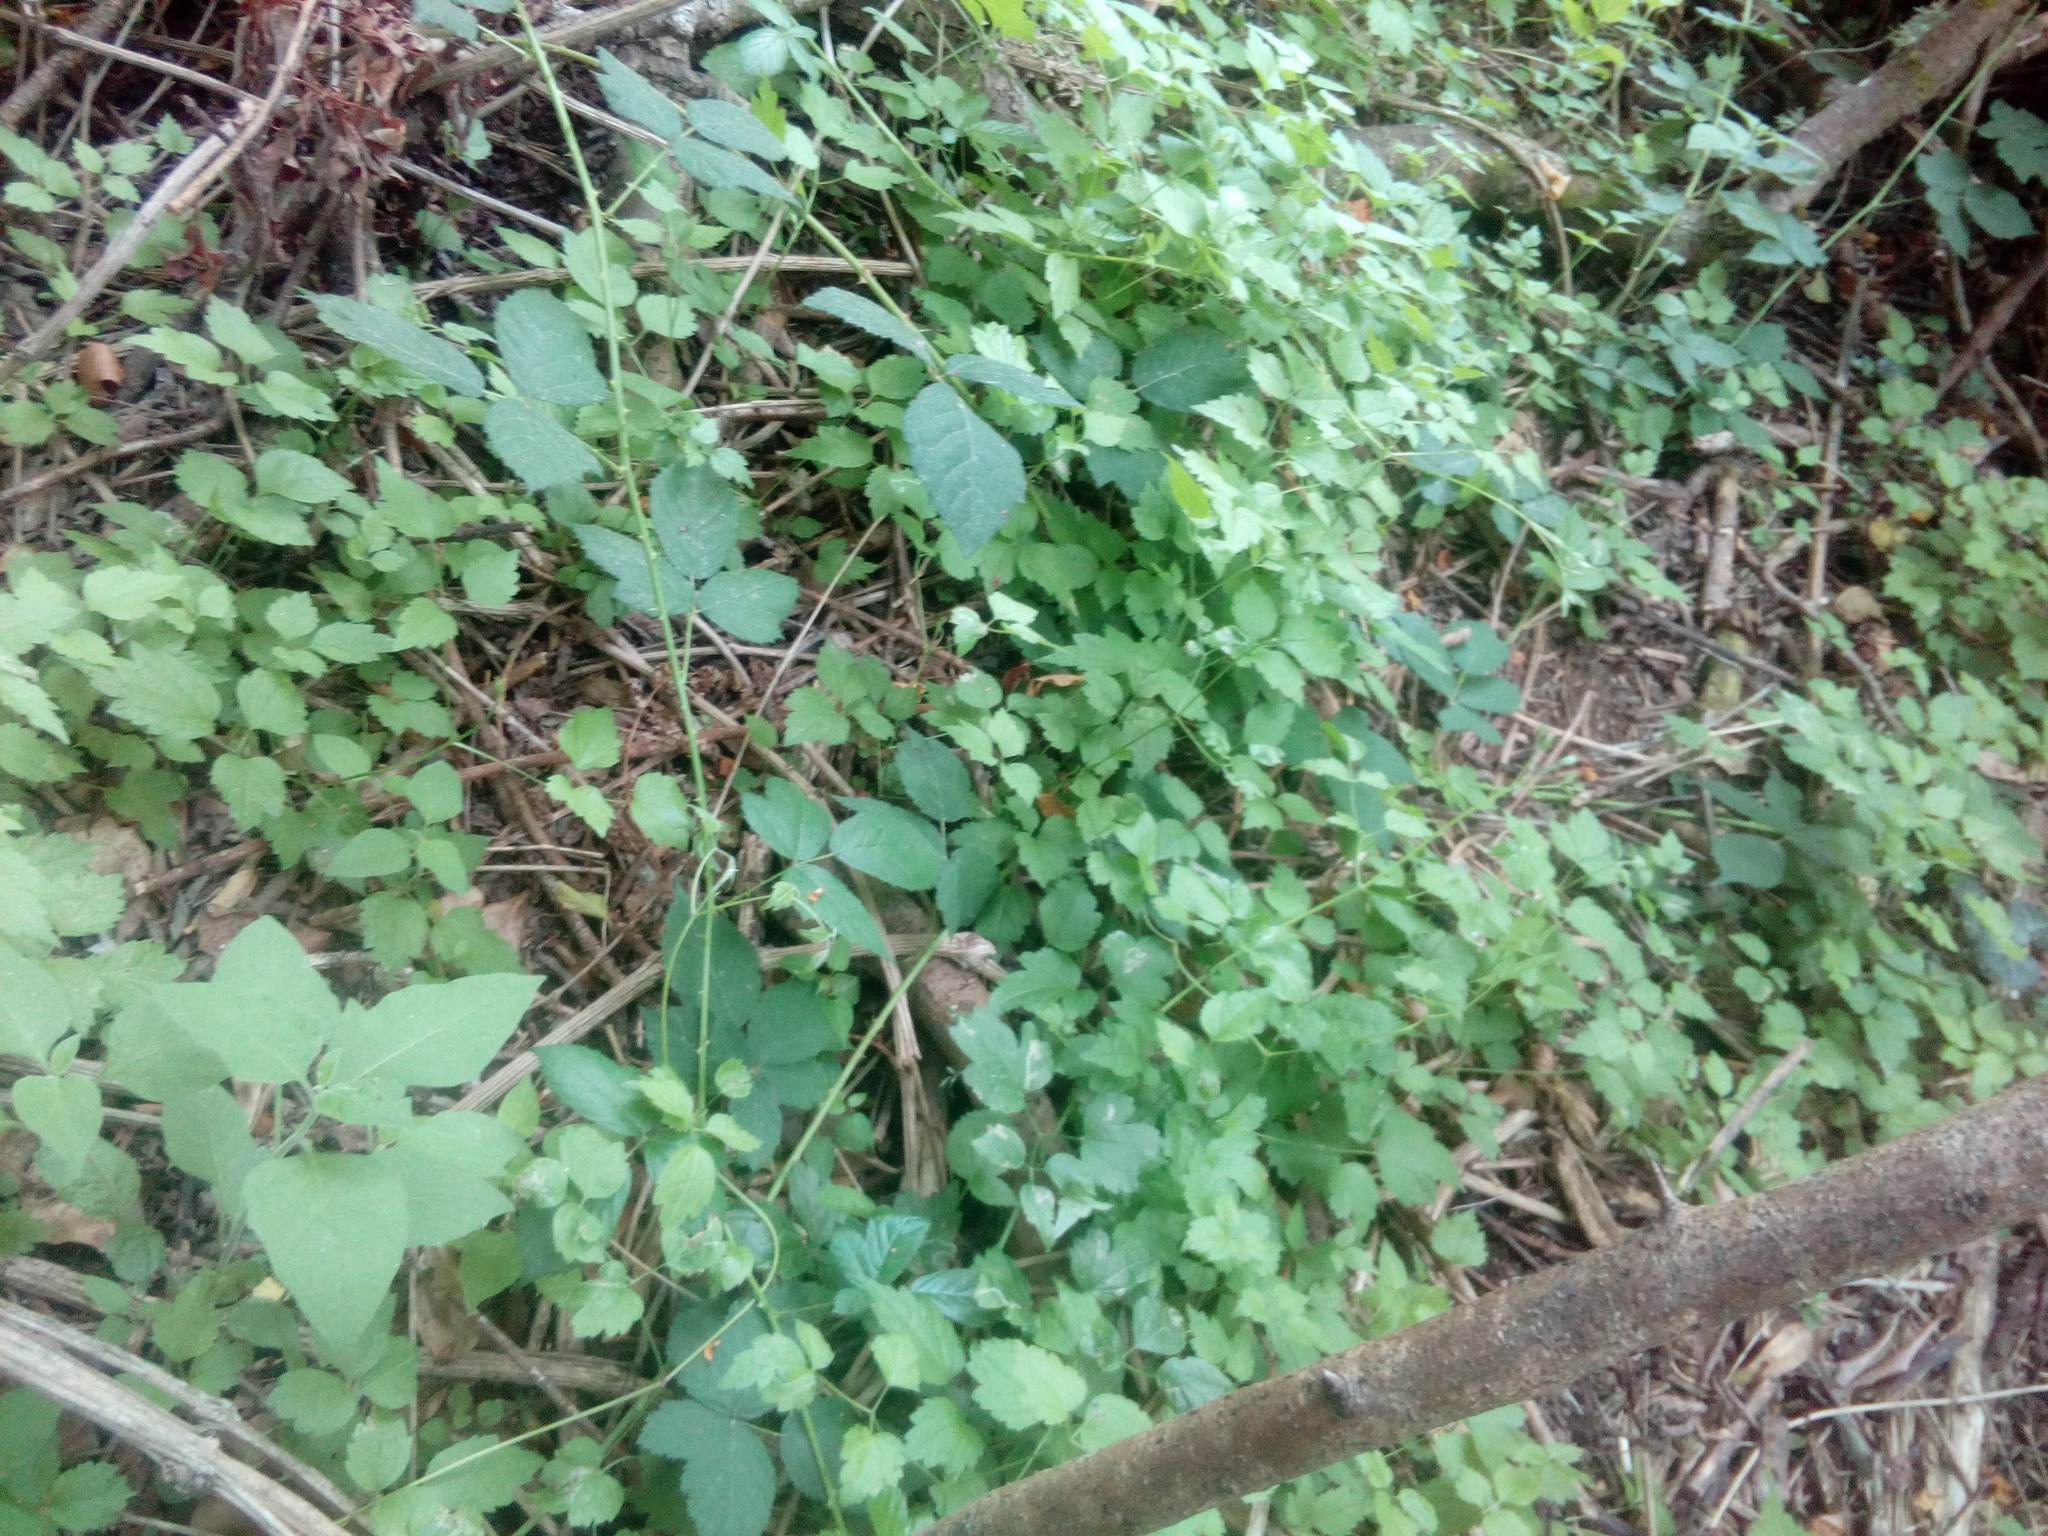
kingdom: Plantae
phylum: Tracheophyta
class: Magnoliopsida
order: Ranunculales
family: Ranunculaceae
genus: Clematis
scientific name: Clematis vitalba
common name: Evergreen clematis
